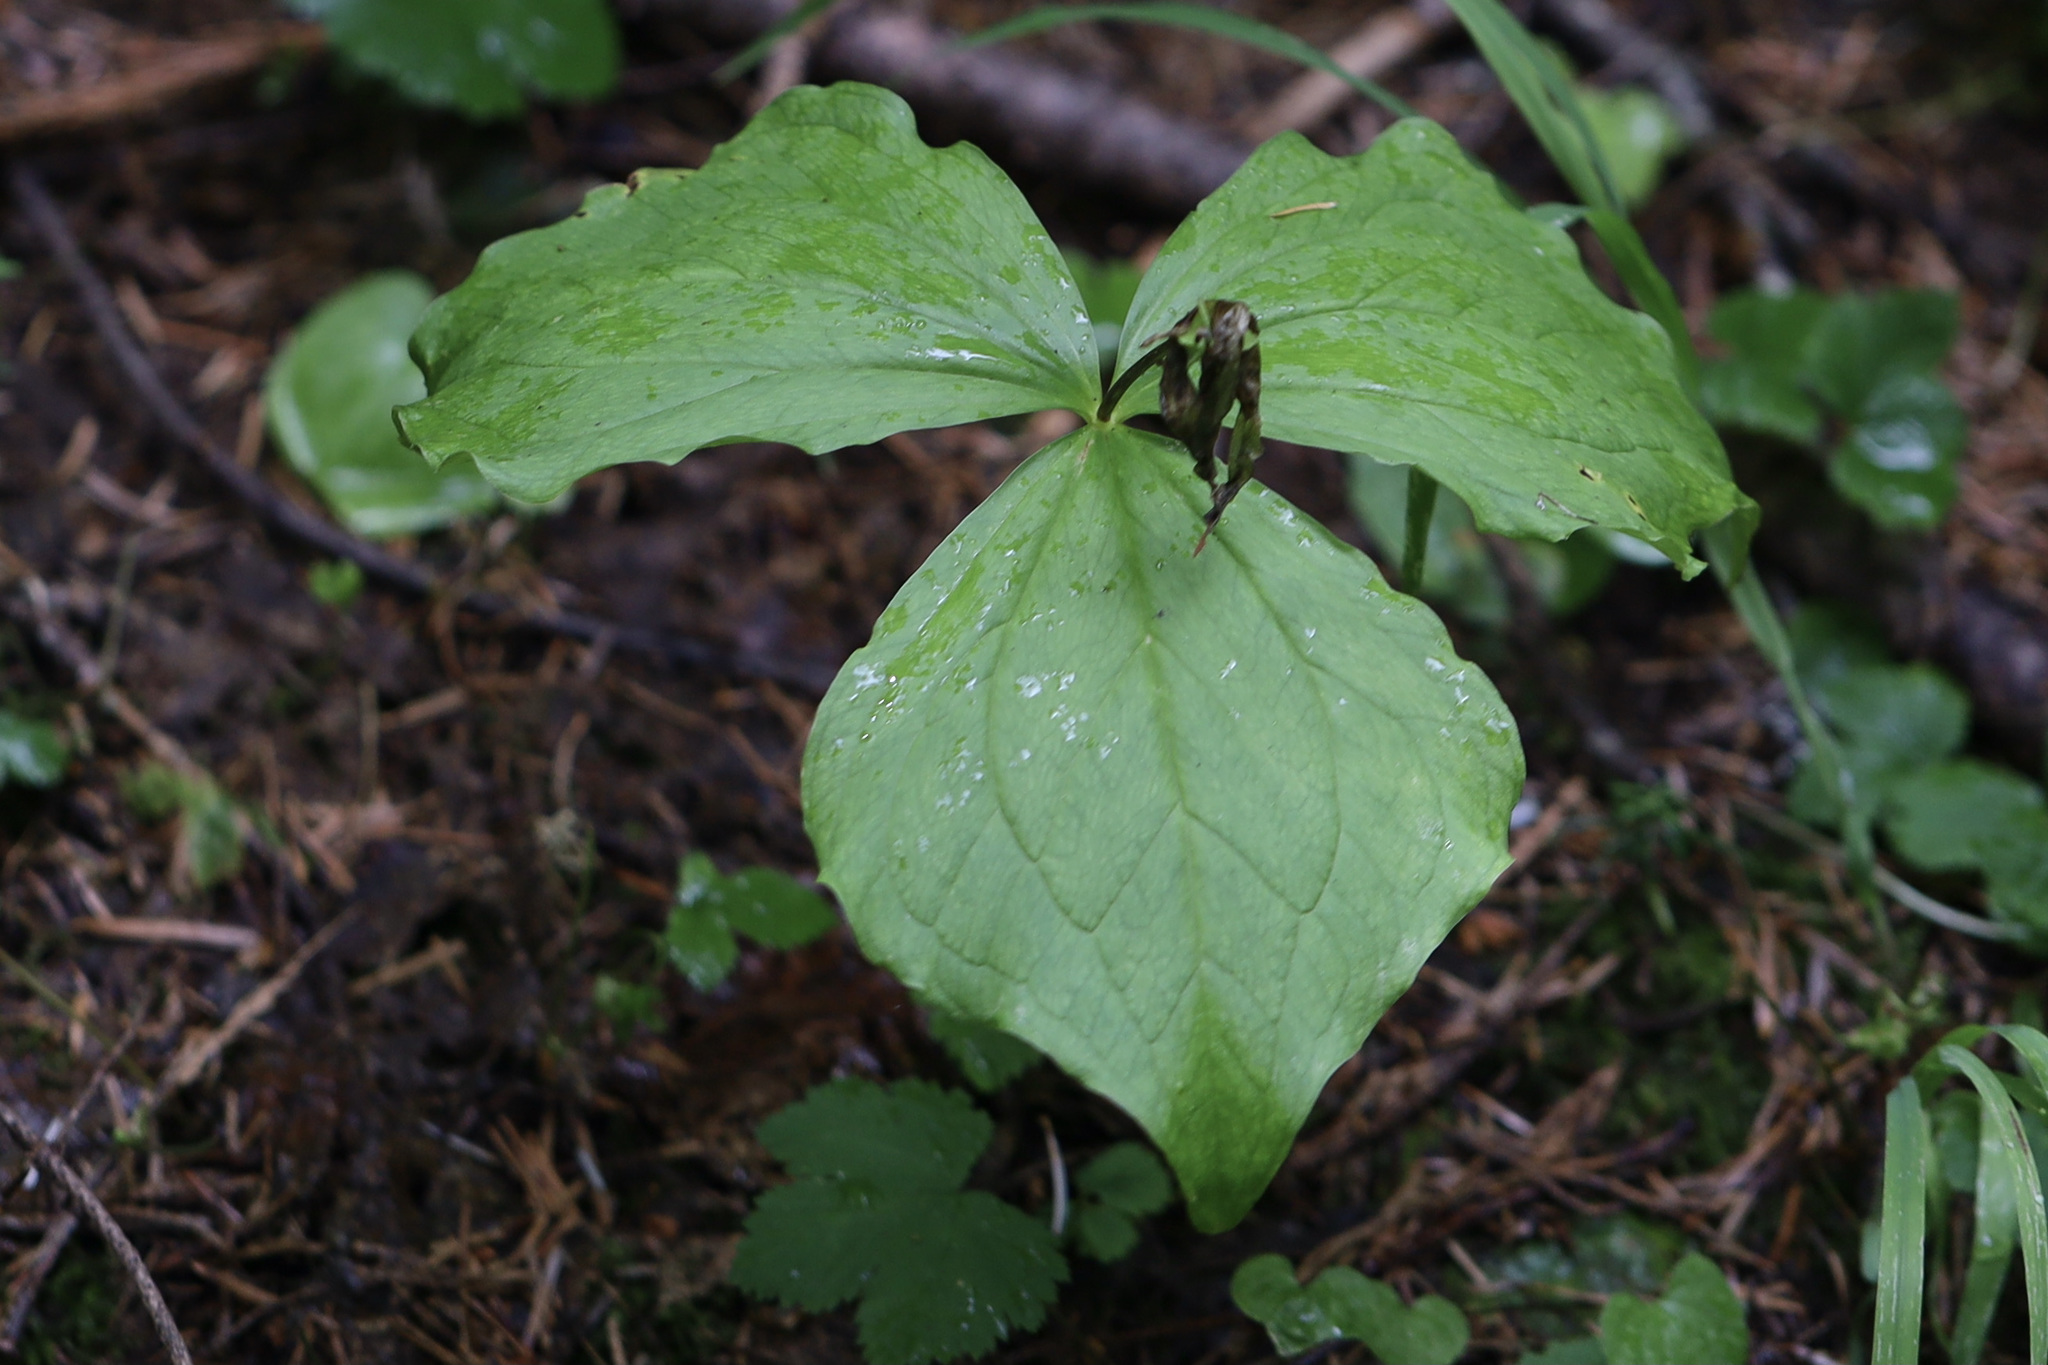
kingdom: Plantae
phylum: Tracheophyta
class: Liliopsida
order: Liliales
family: Melanthiaceae
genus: Trillium
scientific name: Trillium ovatum
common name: Pacific trillium
